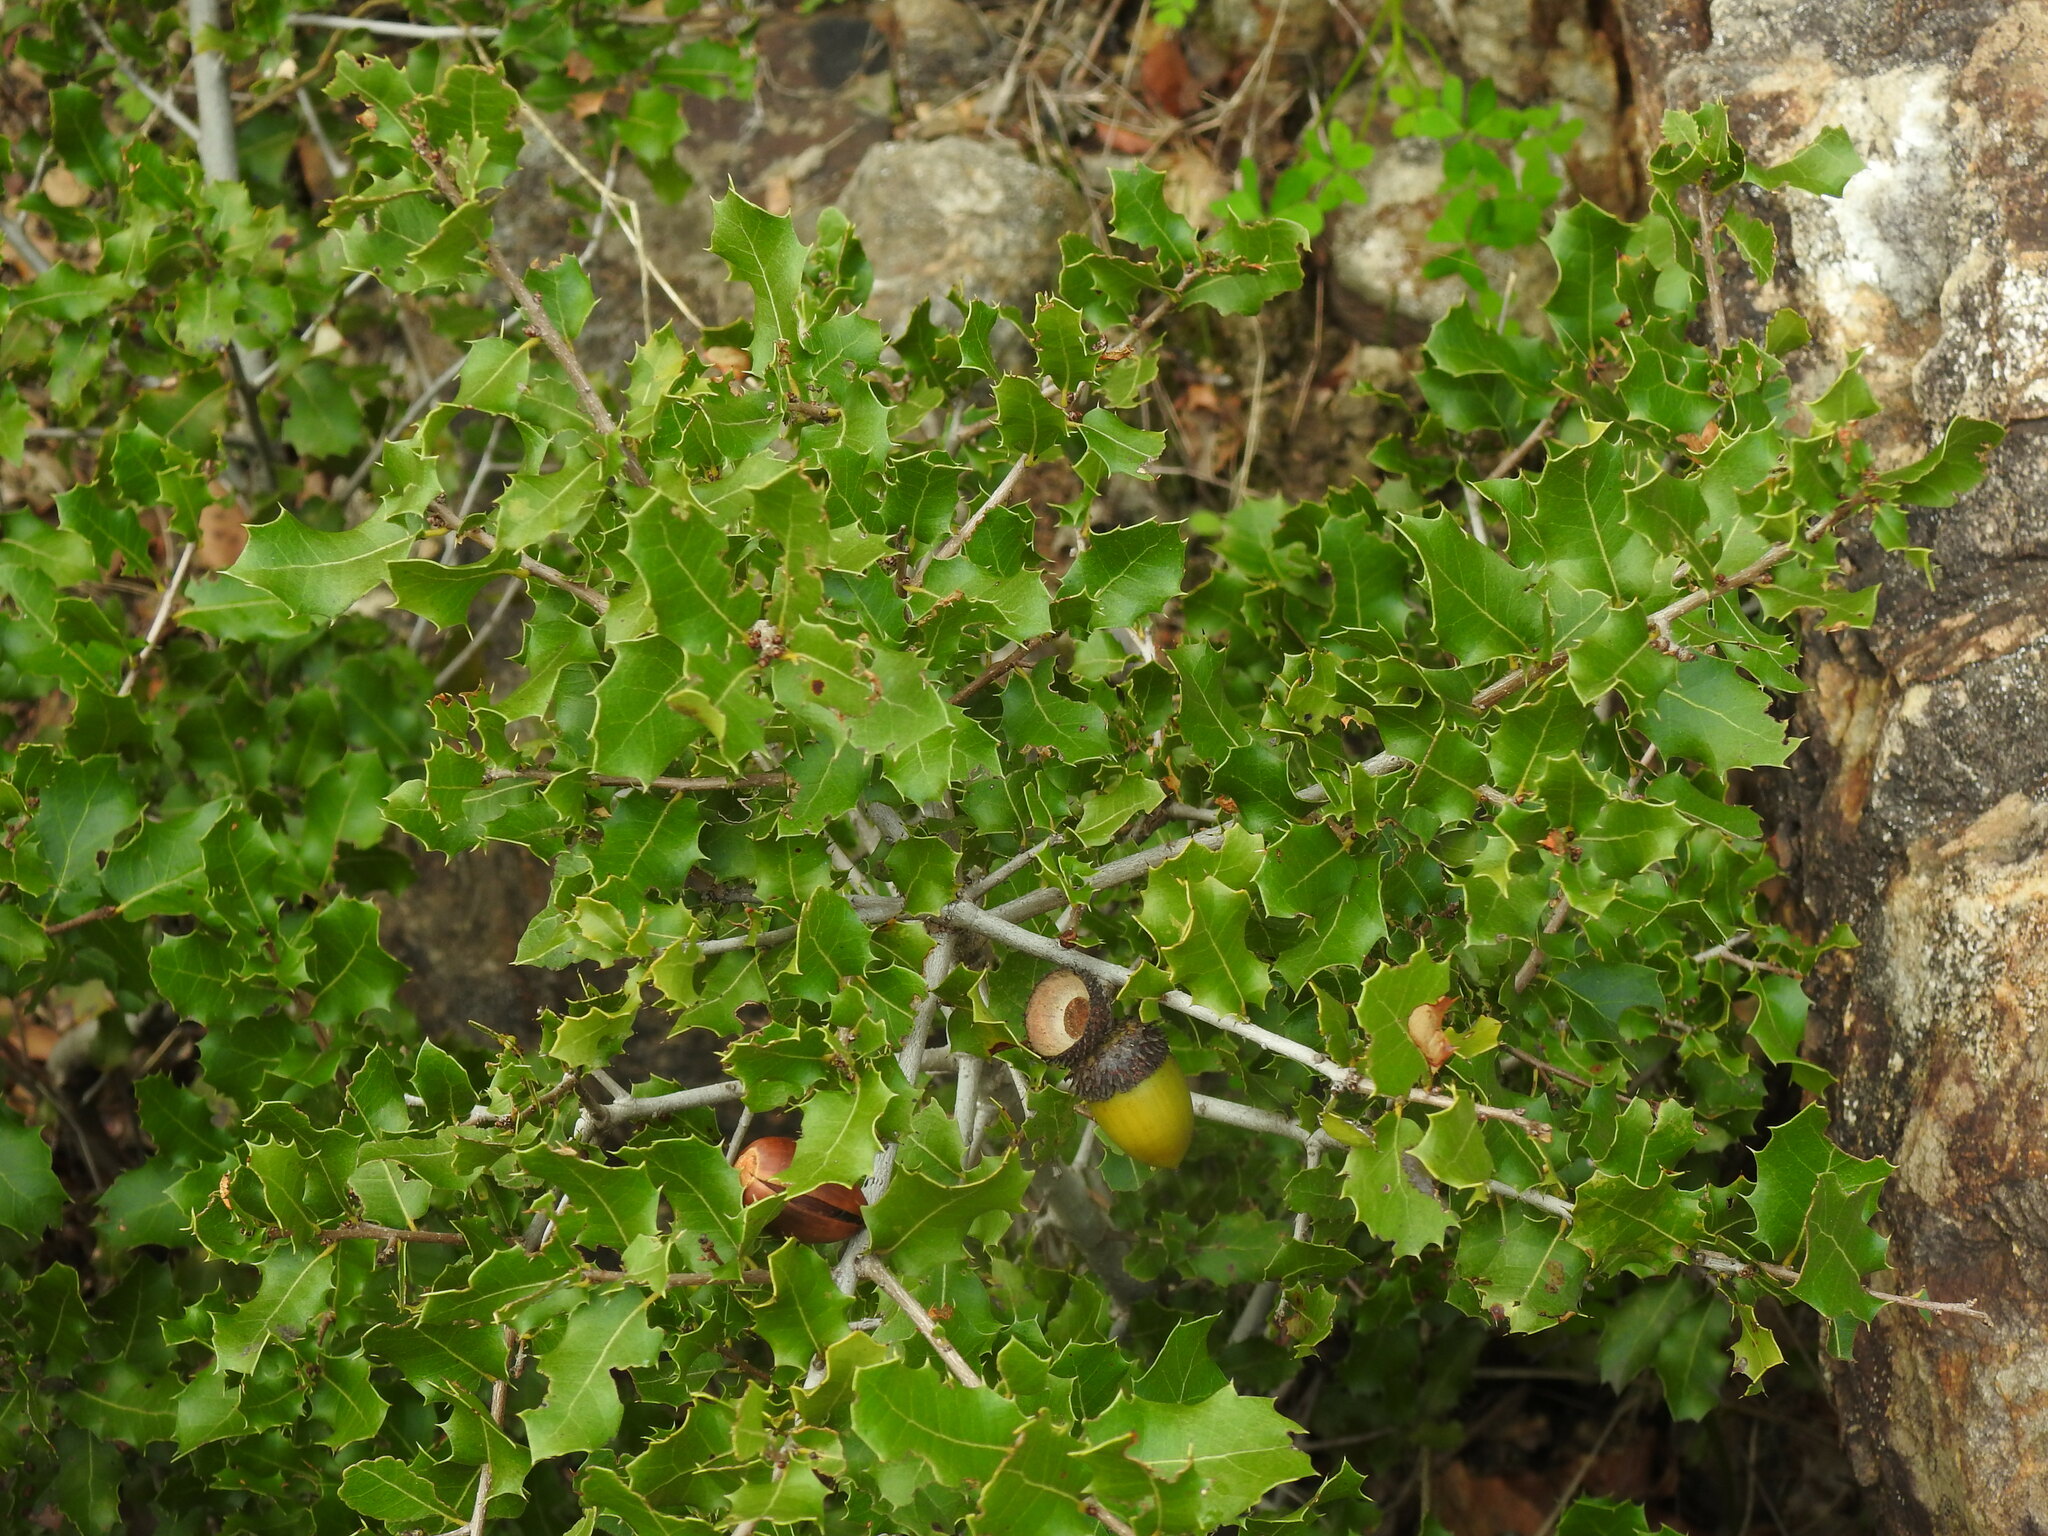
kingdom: Plantae
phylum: Tracheophyta
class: Magnoliopsida
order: Fagales
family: Fagaceae
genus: Quercus
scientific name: Quercus coccifera
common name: Kermes oak
